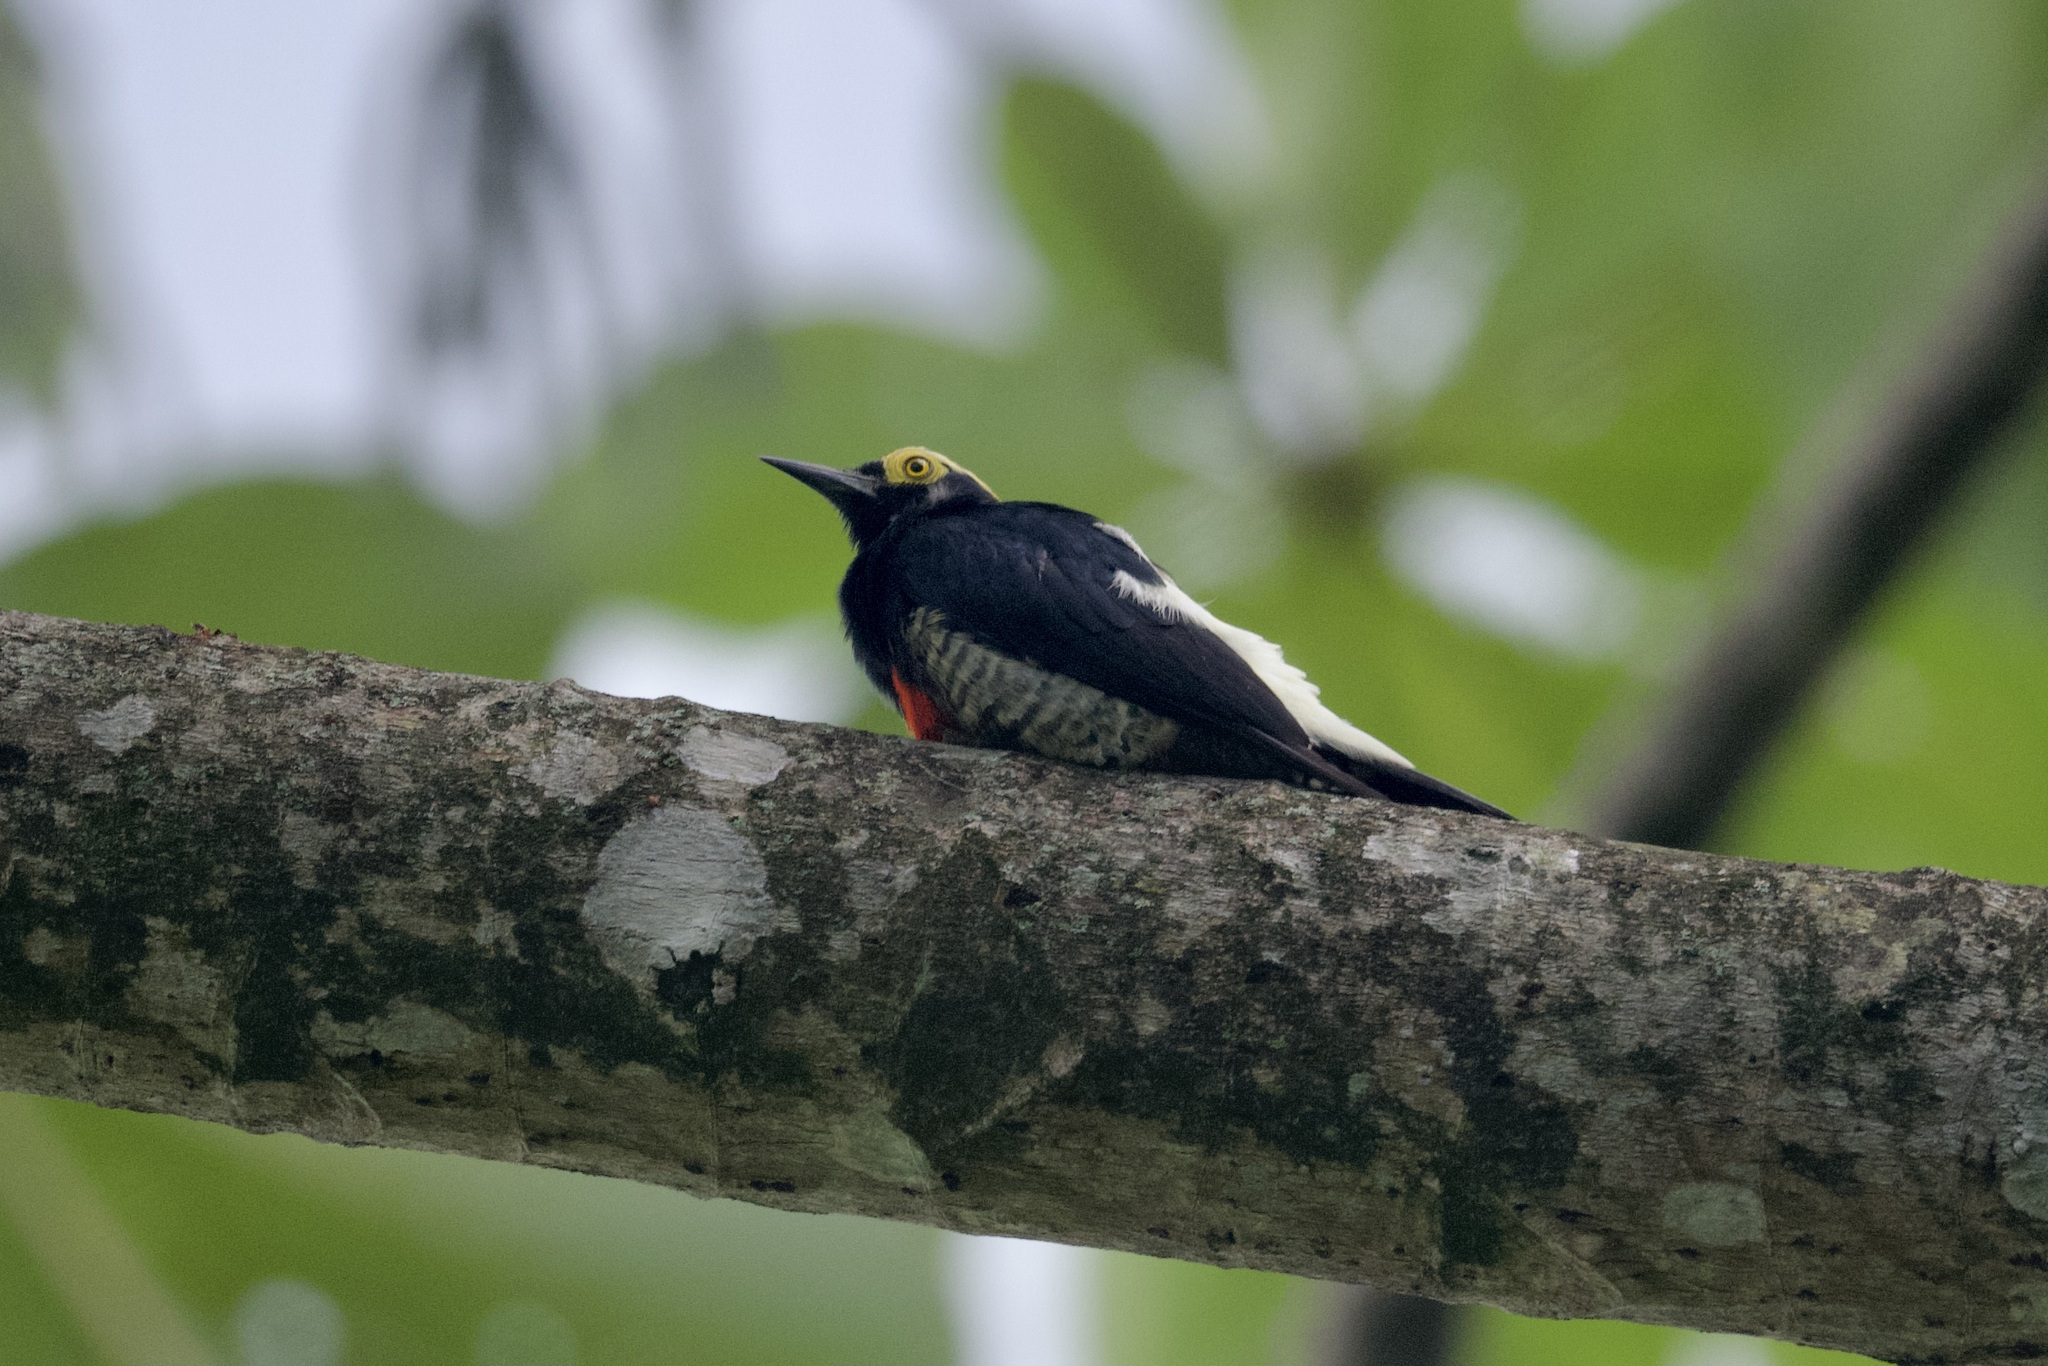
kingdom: Animalia
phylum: Chordata
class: Aves
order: Piciformes
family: Picidae
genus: Melanerpes
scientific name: Melanerpes cruentatus
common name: Yellow-tufted woodpecker
